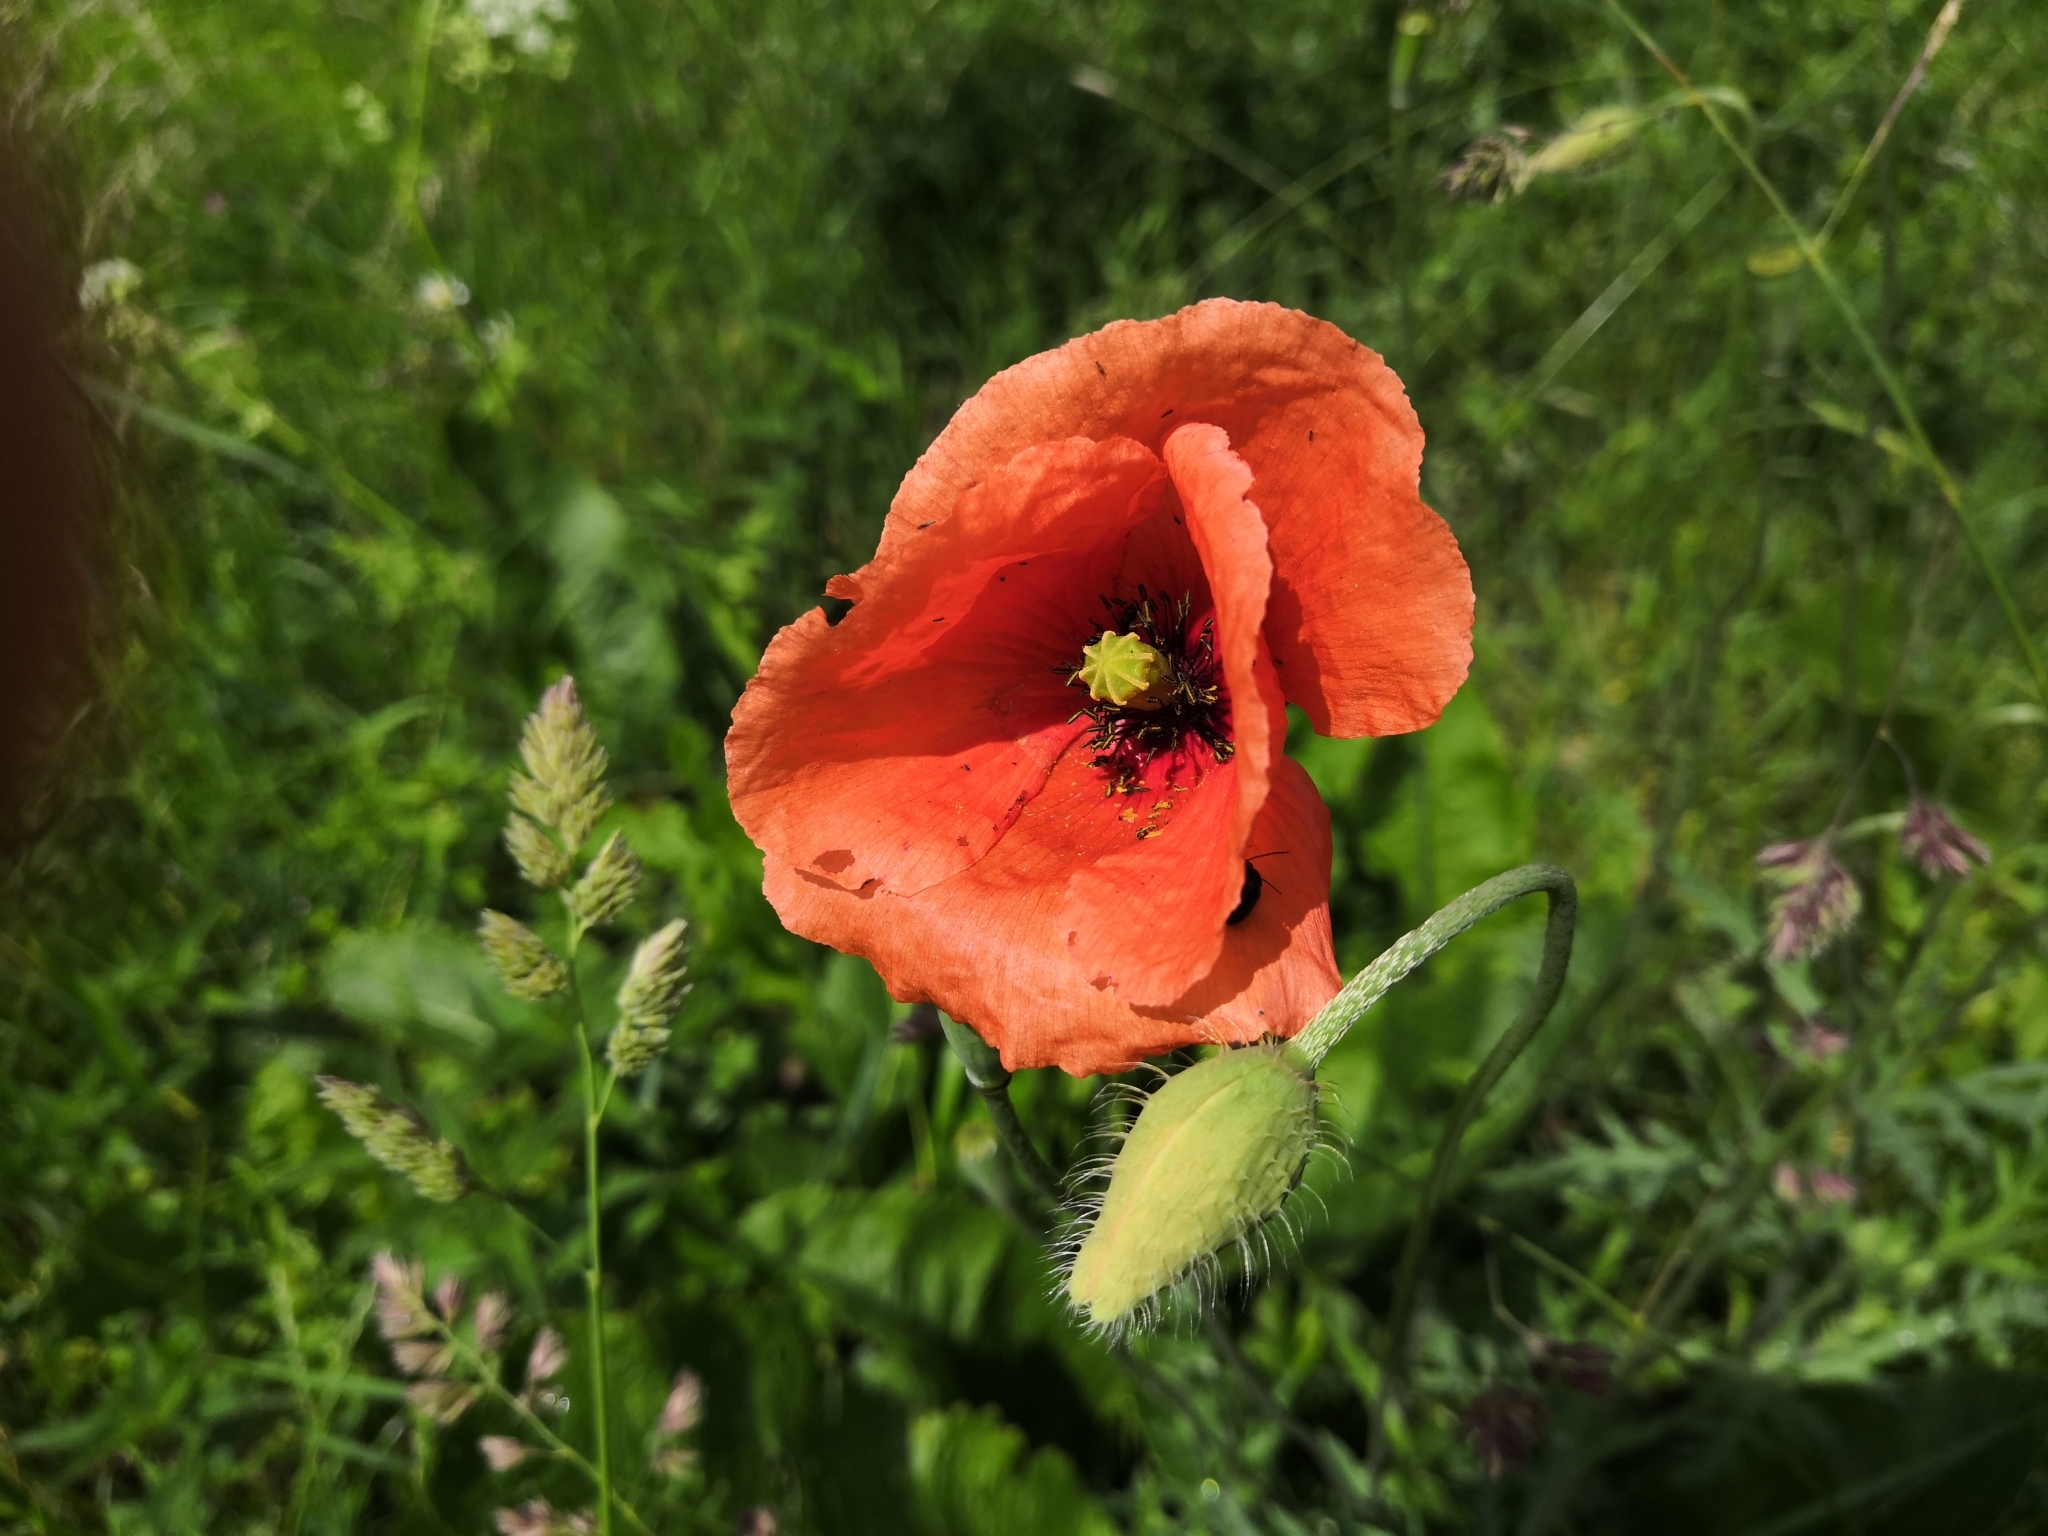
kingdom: Plantae
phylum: Tracheophyta
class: Magnoliopsida
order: Ranunculales
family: Papaveraceae
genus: Papaver
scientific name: Papaver rhoeas
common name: Corn poppy
